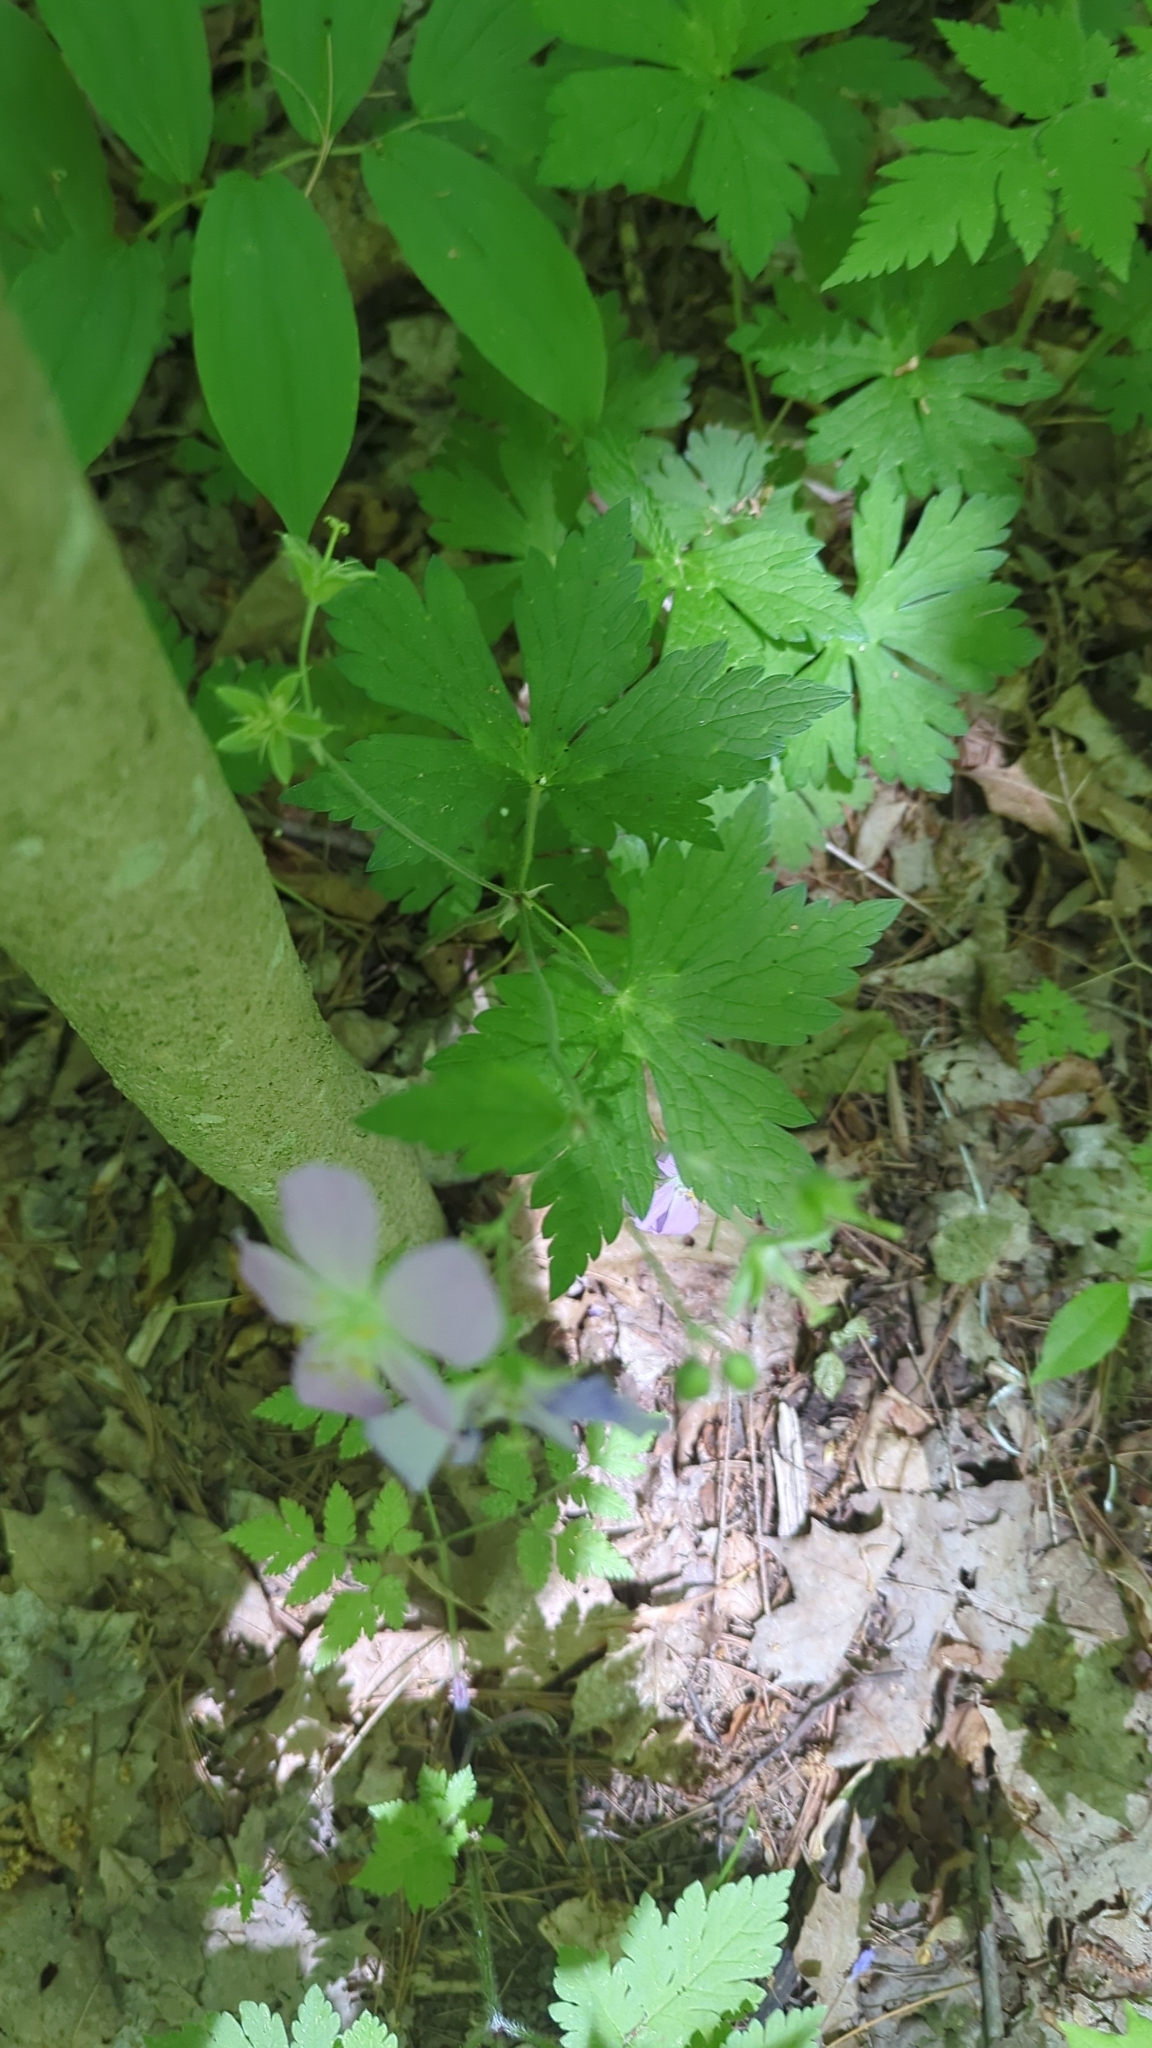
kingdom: Plantae
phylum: Tracheophyta
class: Magnoliopsida
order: Geraniales
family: Geraniaceae
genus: Geranium
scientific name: Geranium maculatum
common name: Spotted geranium
